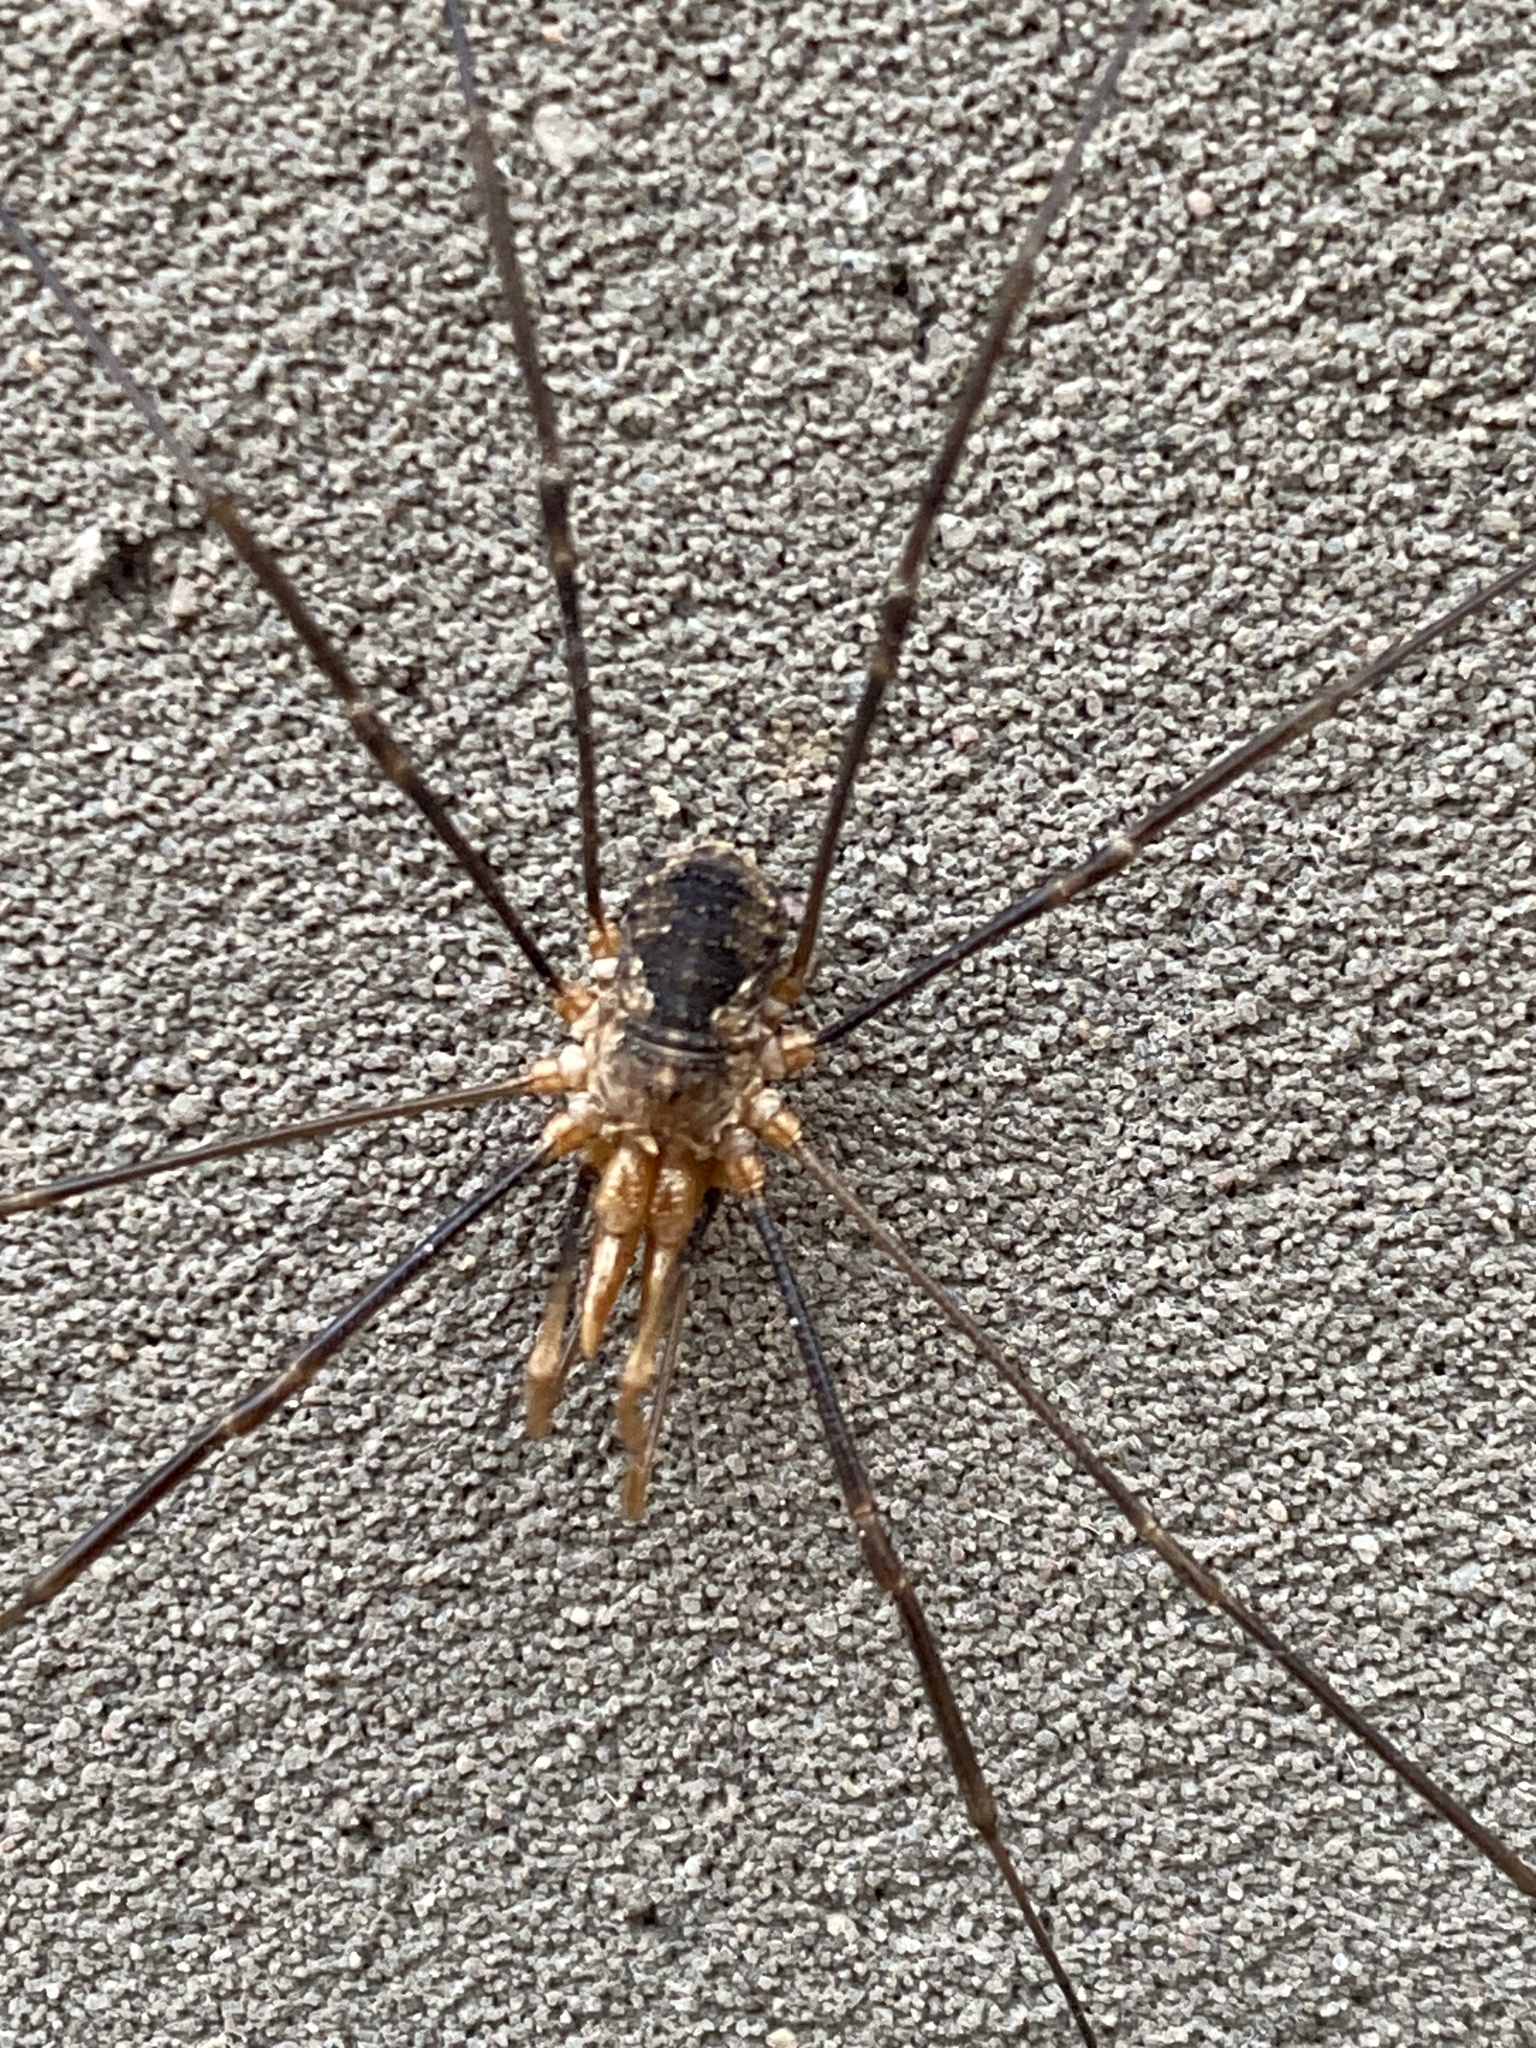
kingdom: Animalia
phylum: Arthropoda
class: Arachnida
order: Opiliones
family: Phalangiidae
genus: Phalangium
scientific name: Phalangium opilio
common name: Daddy longleg
